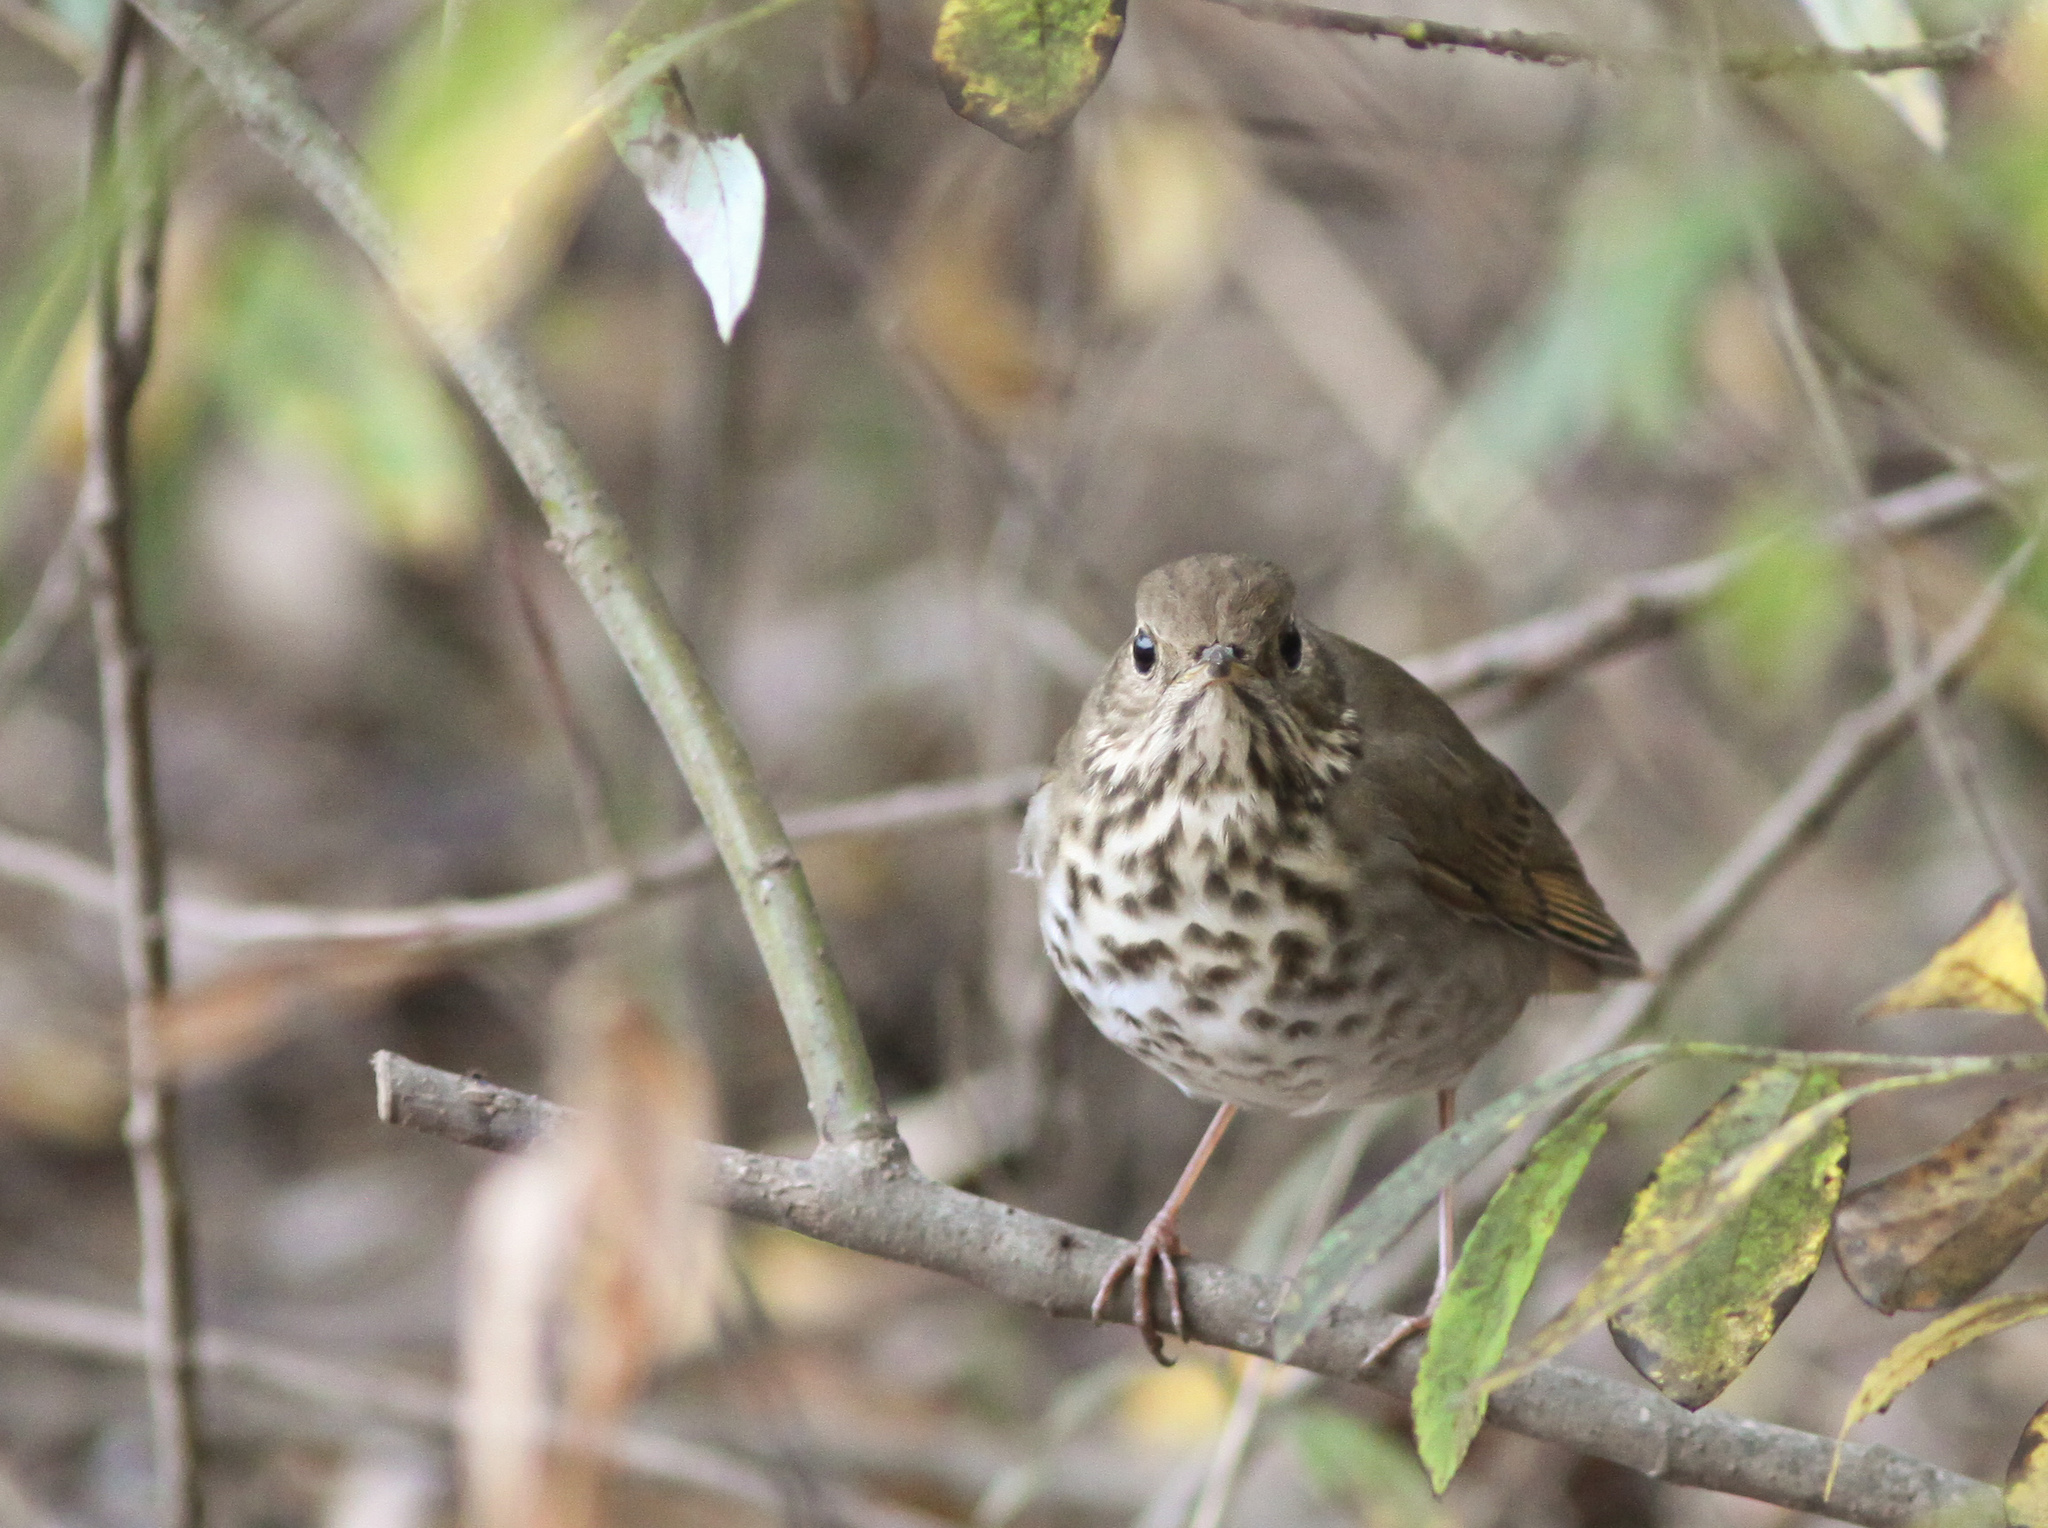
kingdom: Animalia
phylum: Chordata
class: Aves
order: Passeriformes
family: Turdidae
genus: Catharus
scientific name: Catharus guttatus
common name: Hermit thrush
